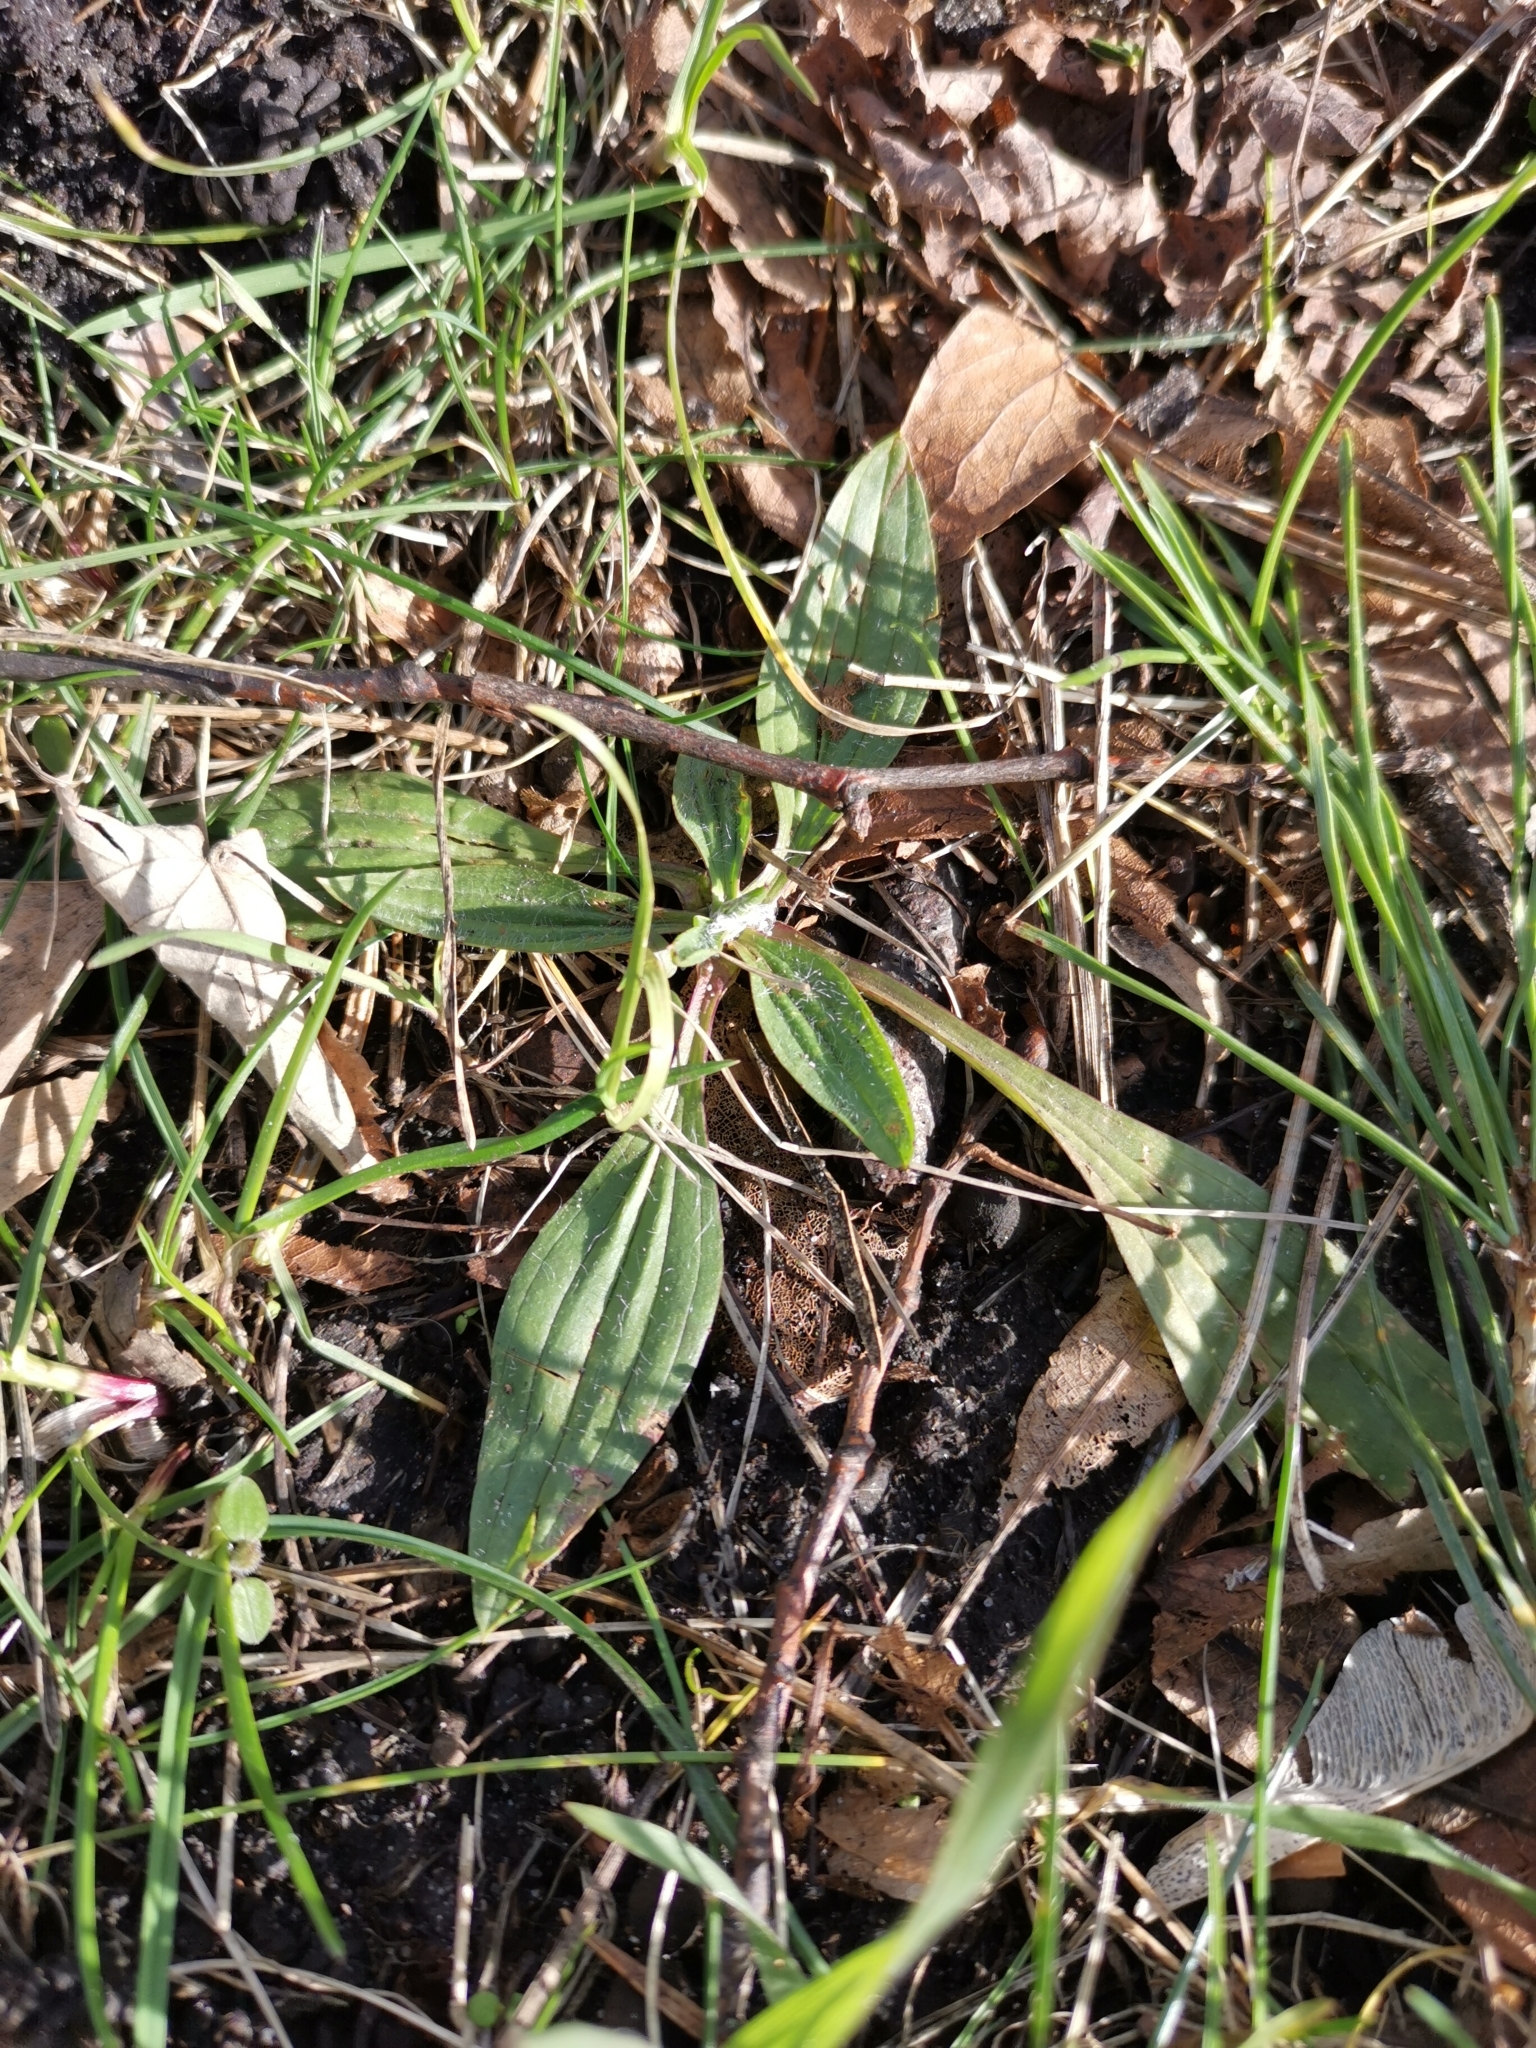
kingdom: Plantae
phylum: Tracheophyta
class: Magnoliopsida
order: Lamiales
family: Plantaginaceae
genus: Plantago
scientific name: Plantago lanceolata
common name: Ribwort plantain
